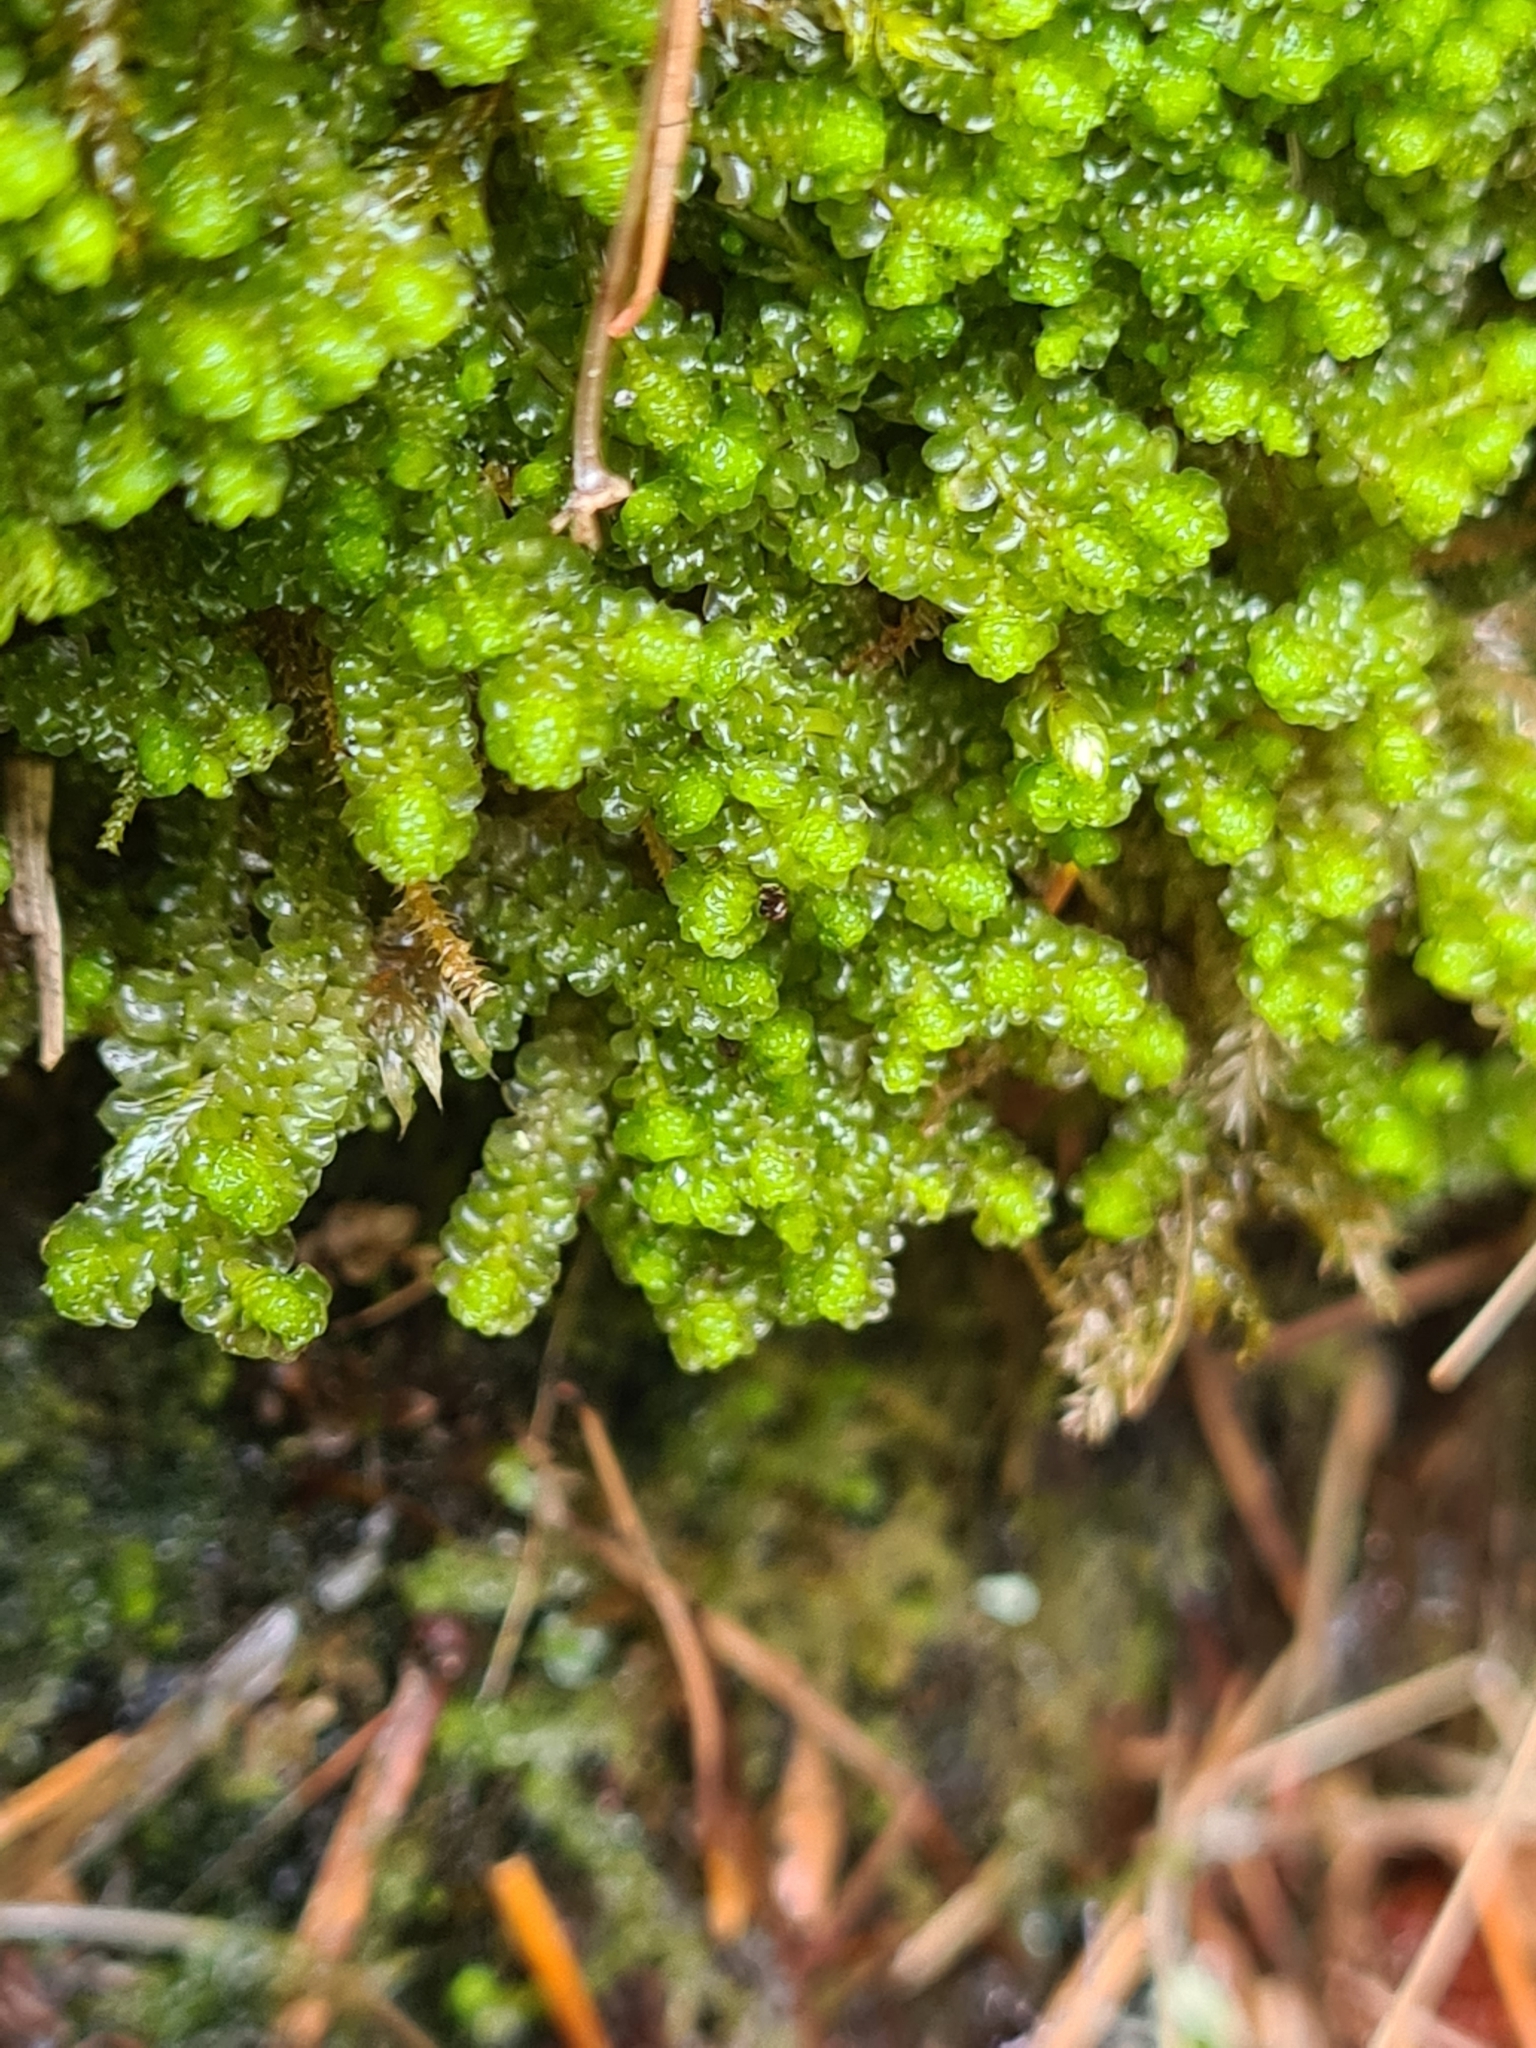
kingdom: Plantae
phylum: Marchantiophyta
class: Jungermanniopsida
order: Jungermanniales
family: Lophoziaceae
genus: Trilophozia
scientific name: Trilophozia quinquedentata
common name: Large notchwort
